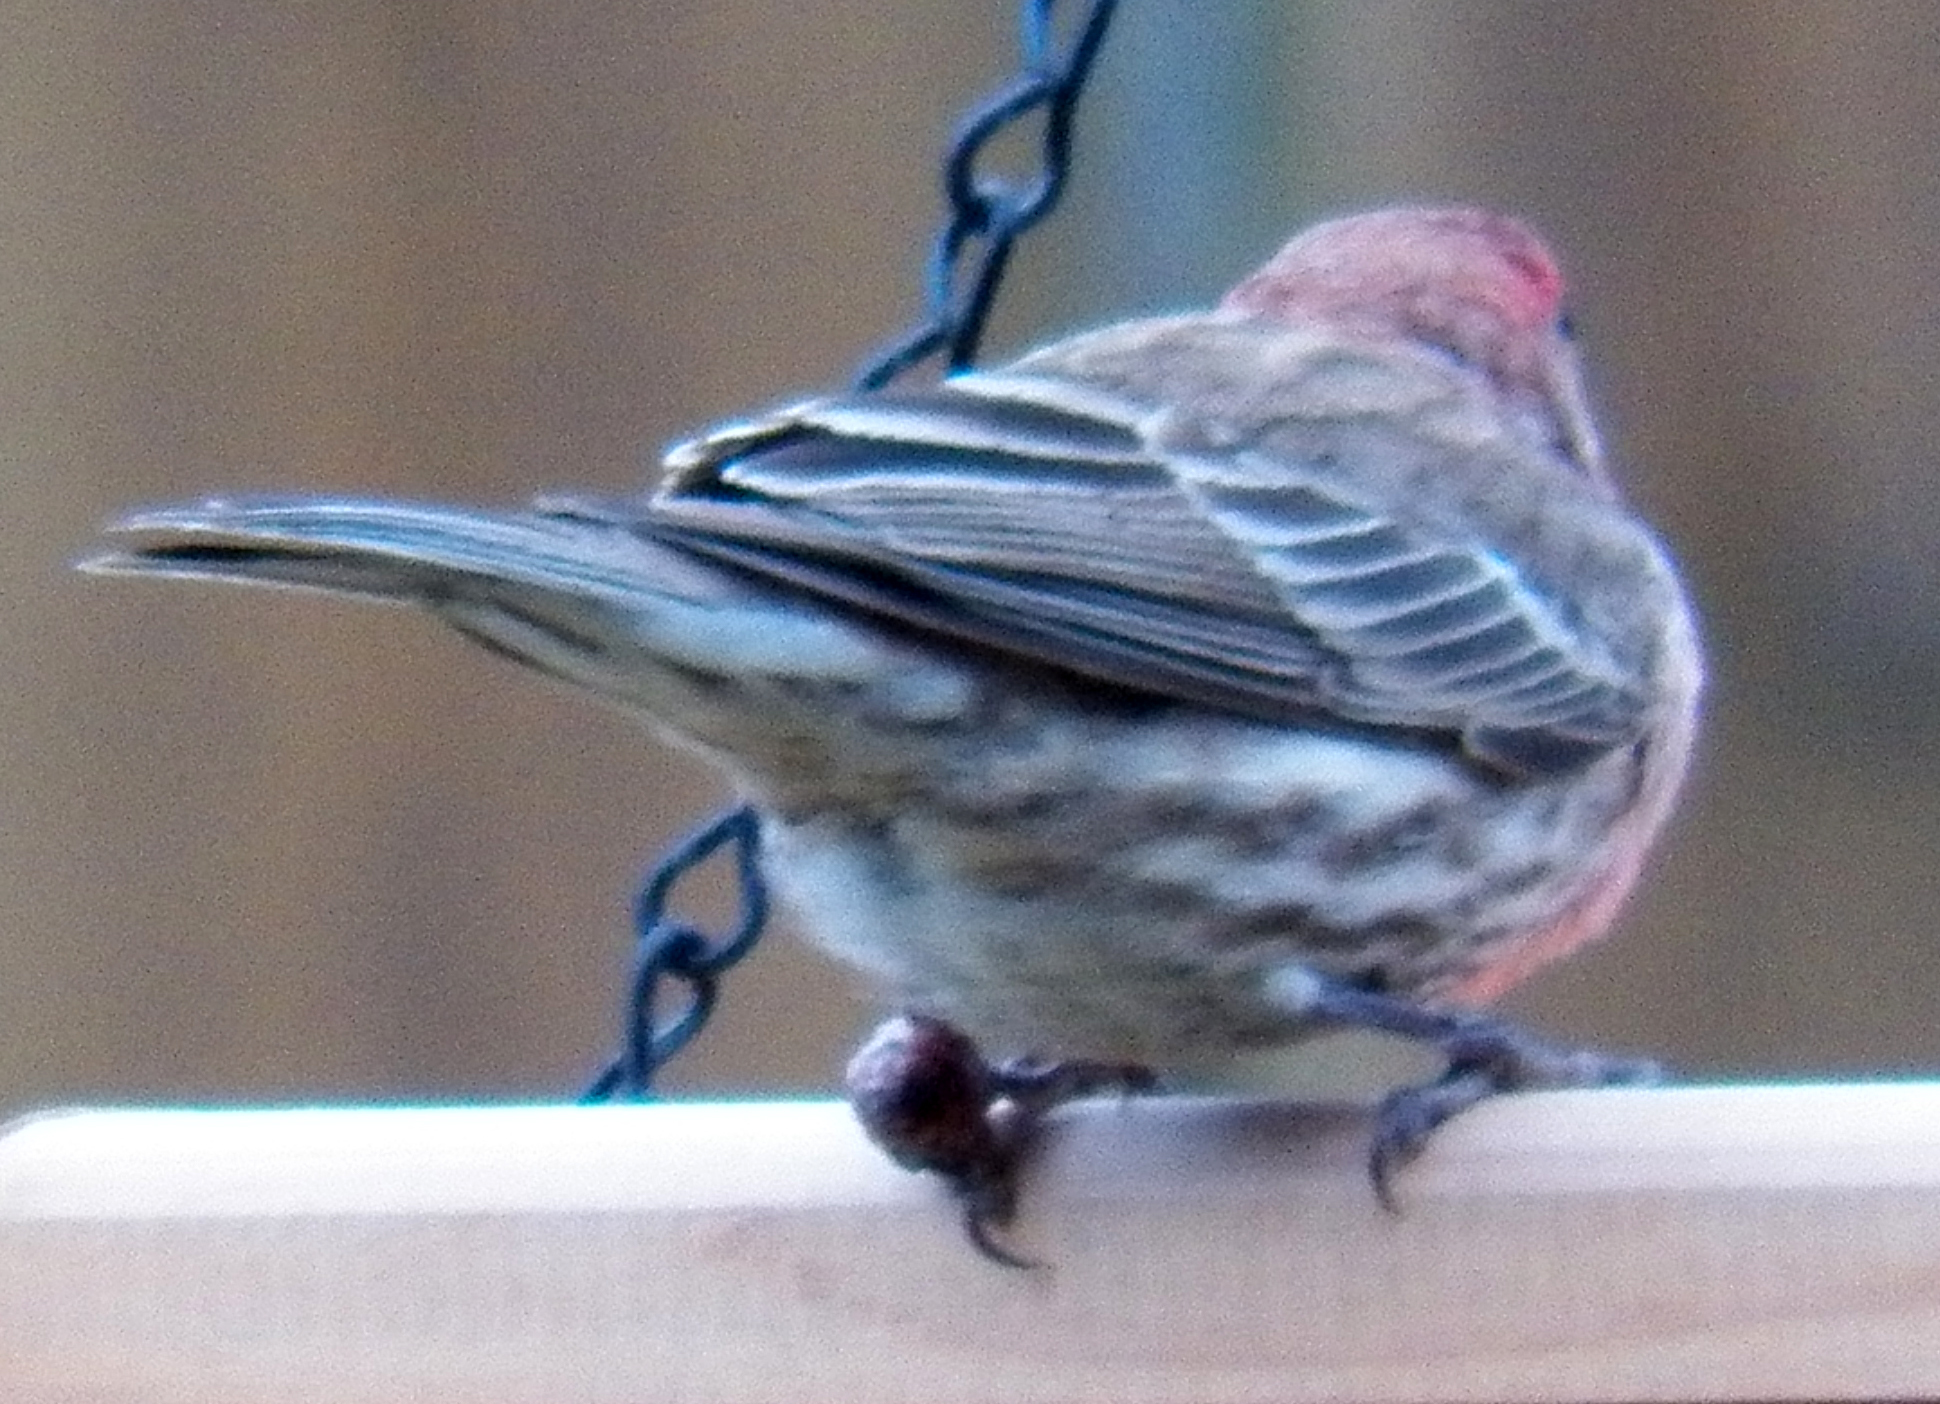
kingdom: Animalia
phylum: Chordata
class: Aves
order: Passeriformes
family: Fringillidae
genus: Haemorhous
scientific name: Haemorhous mexicanus
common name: House finch
